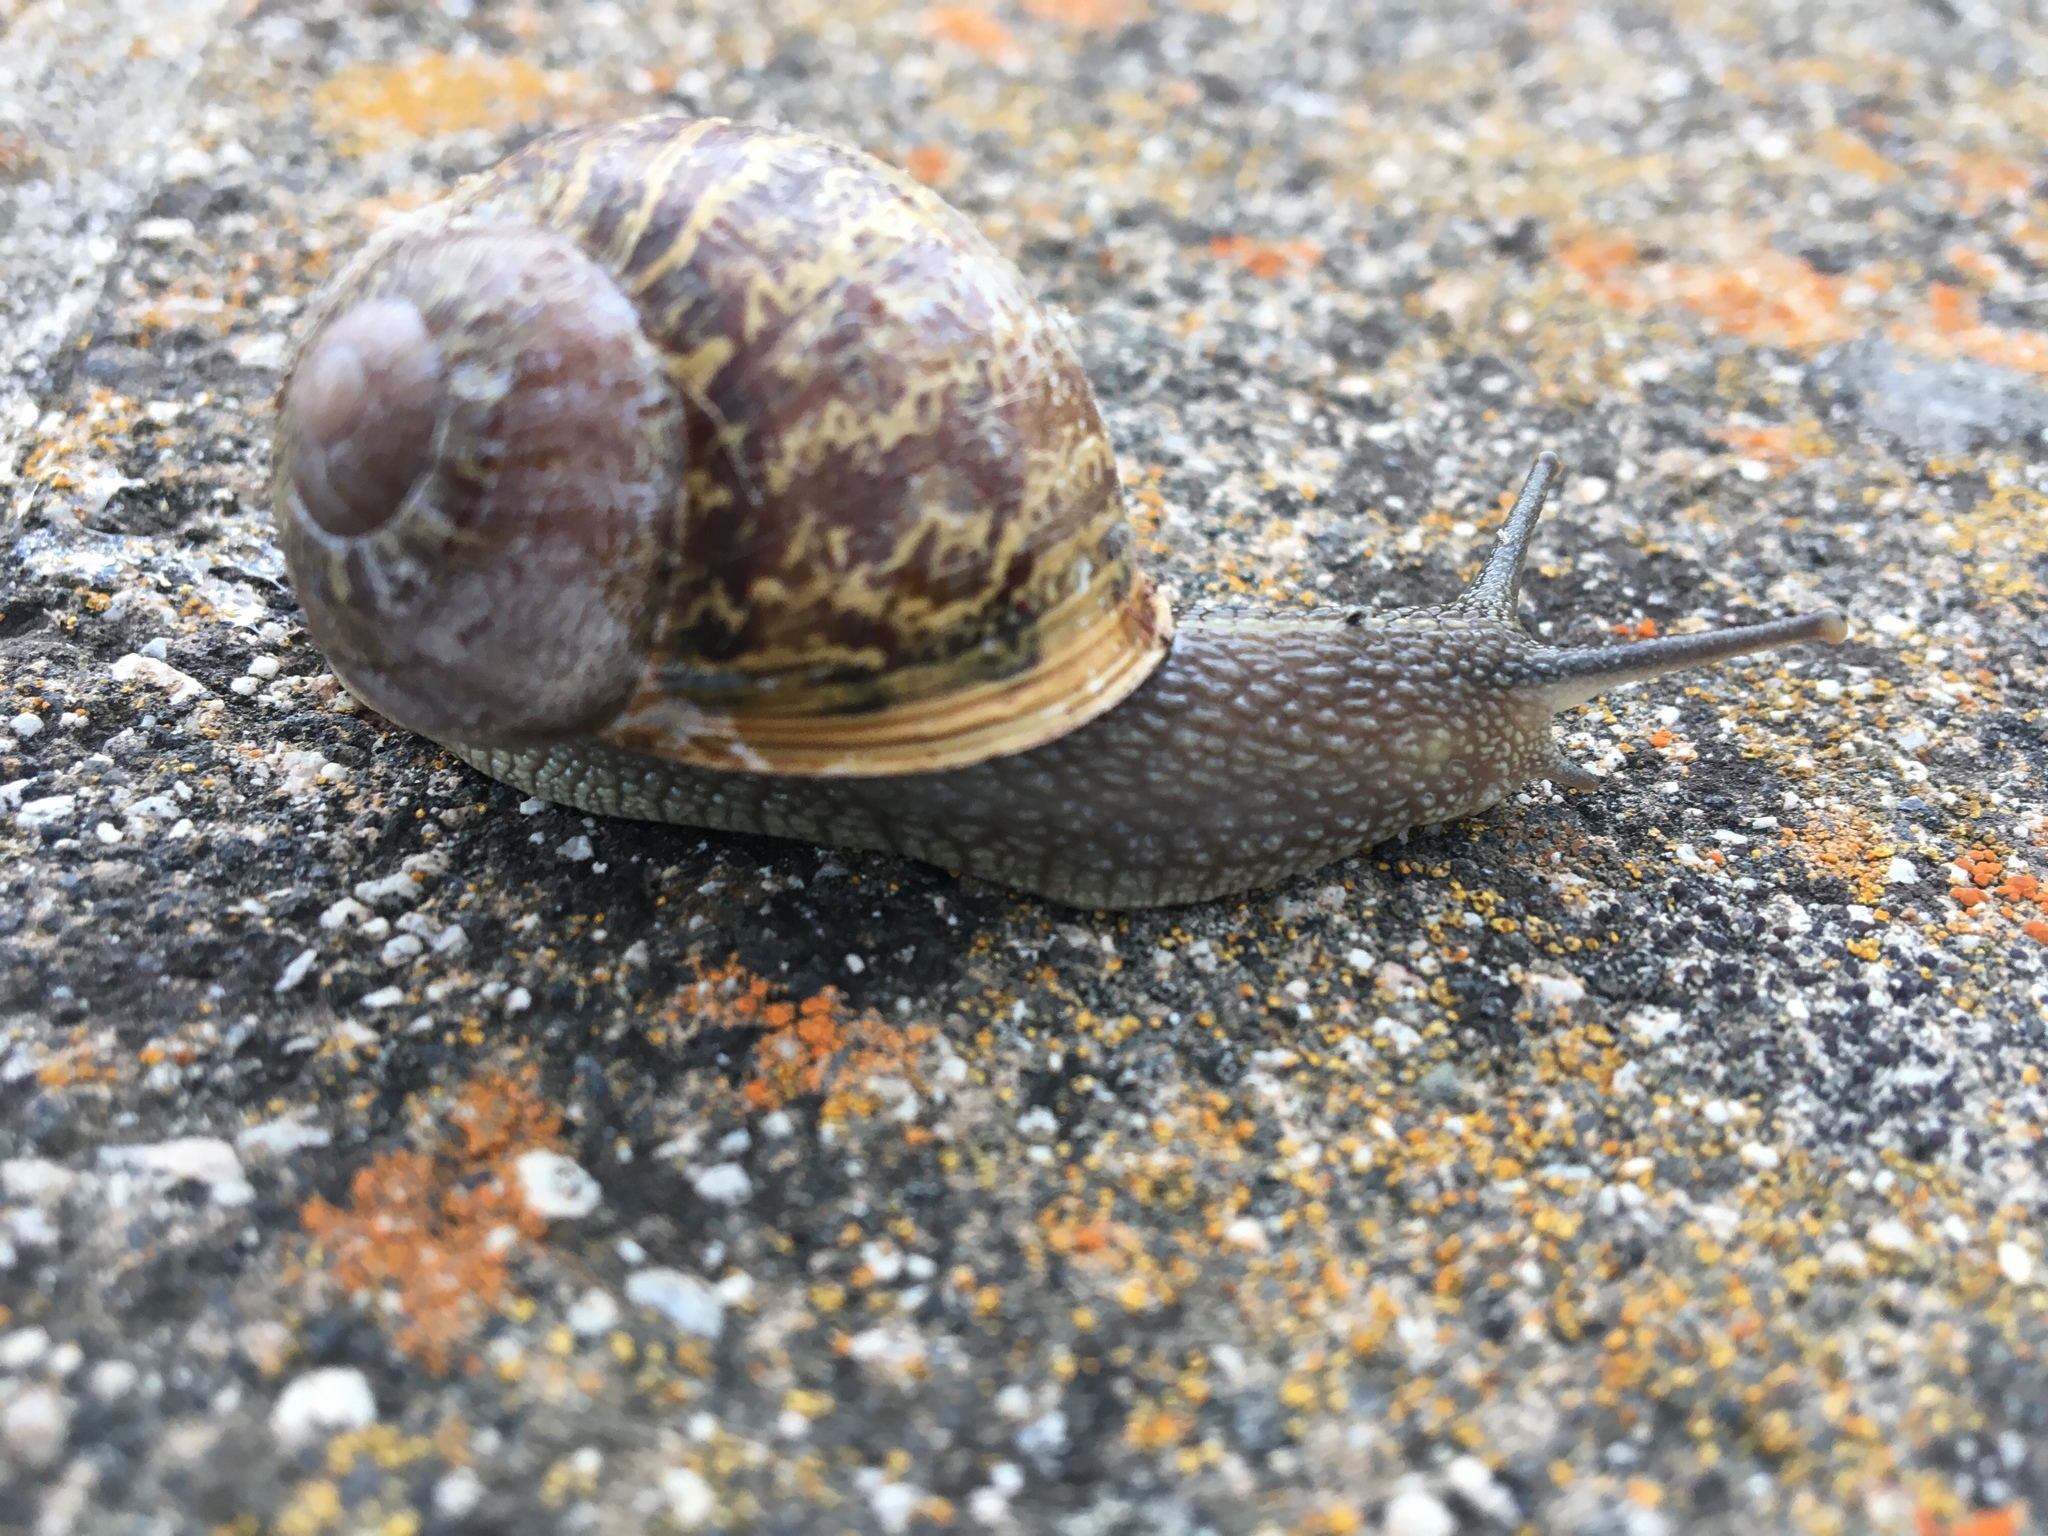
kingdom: Animalia
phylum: Mollusca
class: Gastropoda
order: Stylommatophora
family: Helicidae
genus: Cornu
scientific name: Cornu aspersum
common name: Brown garden snail
